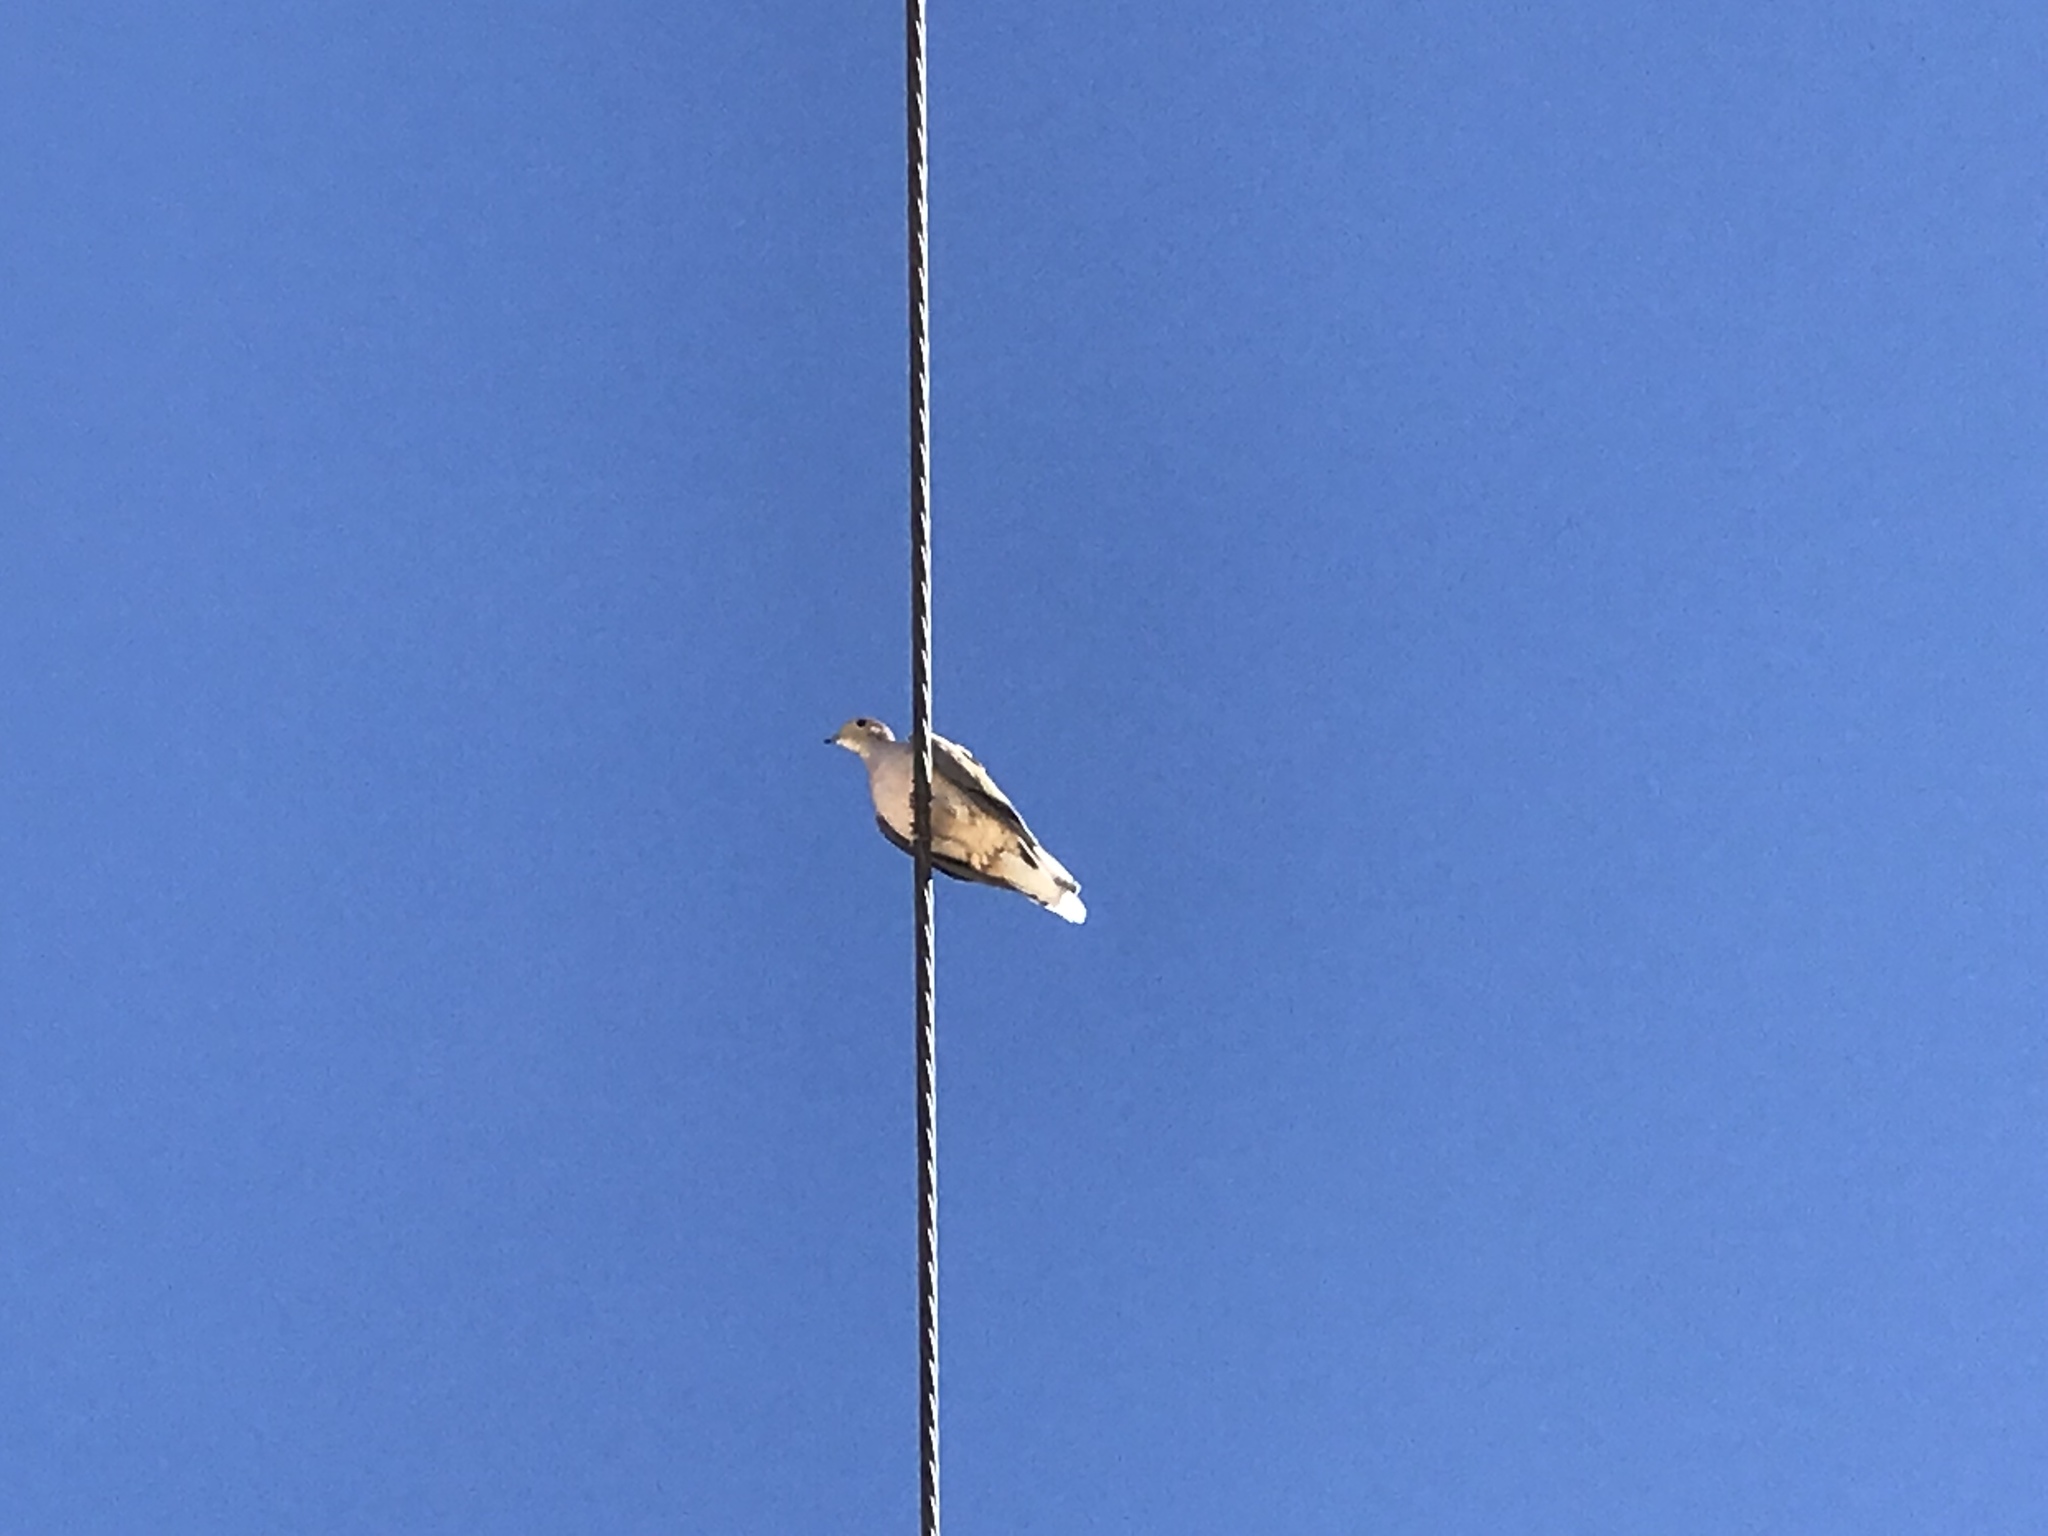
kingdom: Animalia
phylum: Chordata
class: Aves
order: Columbiformes
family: Columbidae
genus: Zenaida
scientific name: Zenaida macroura
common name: Mourning dove
